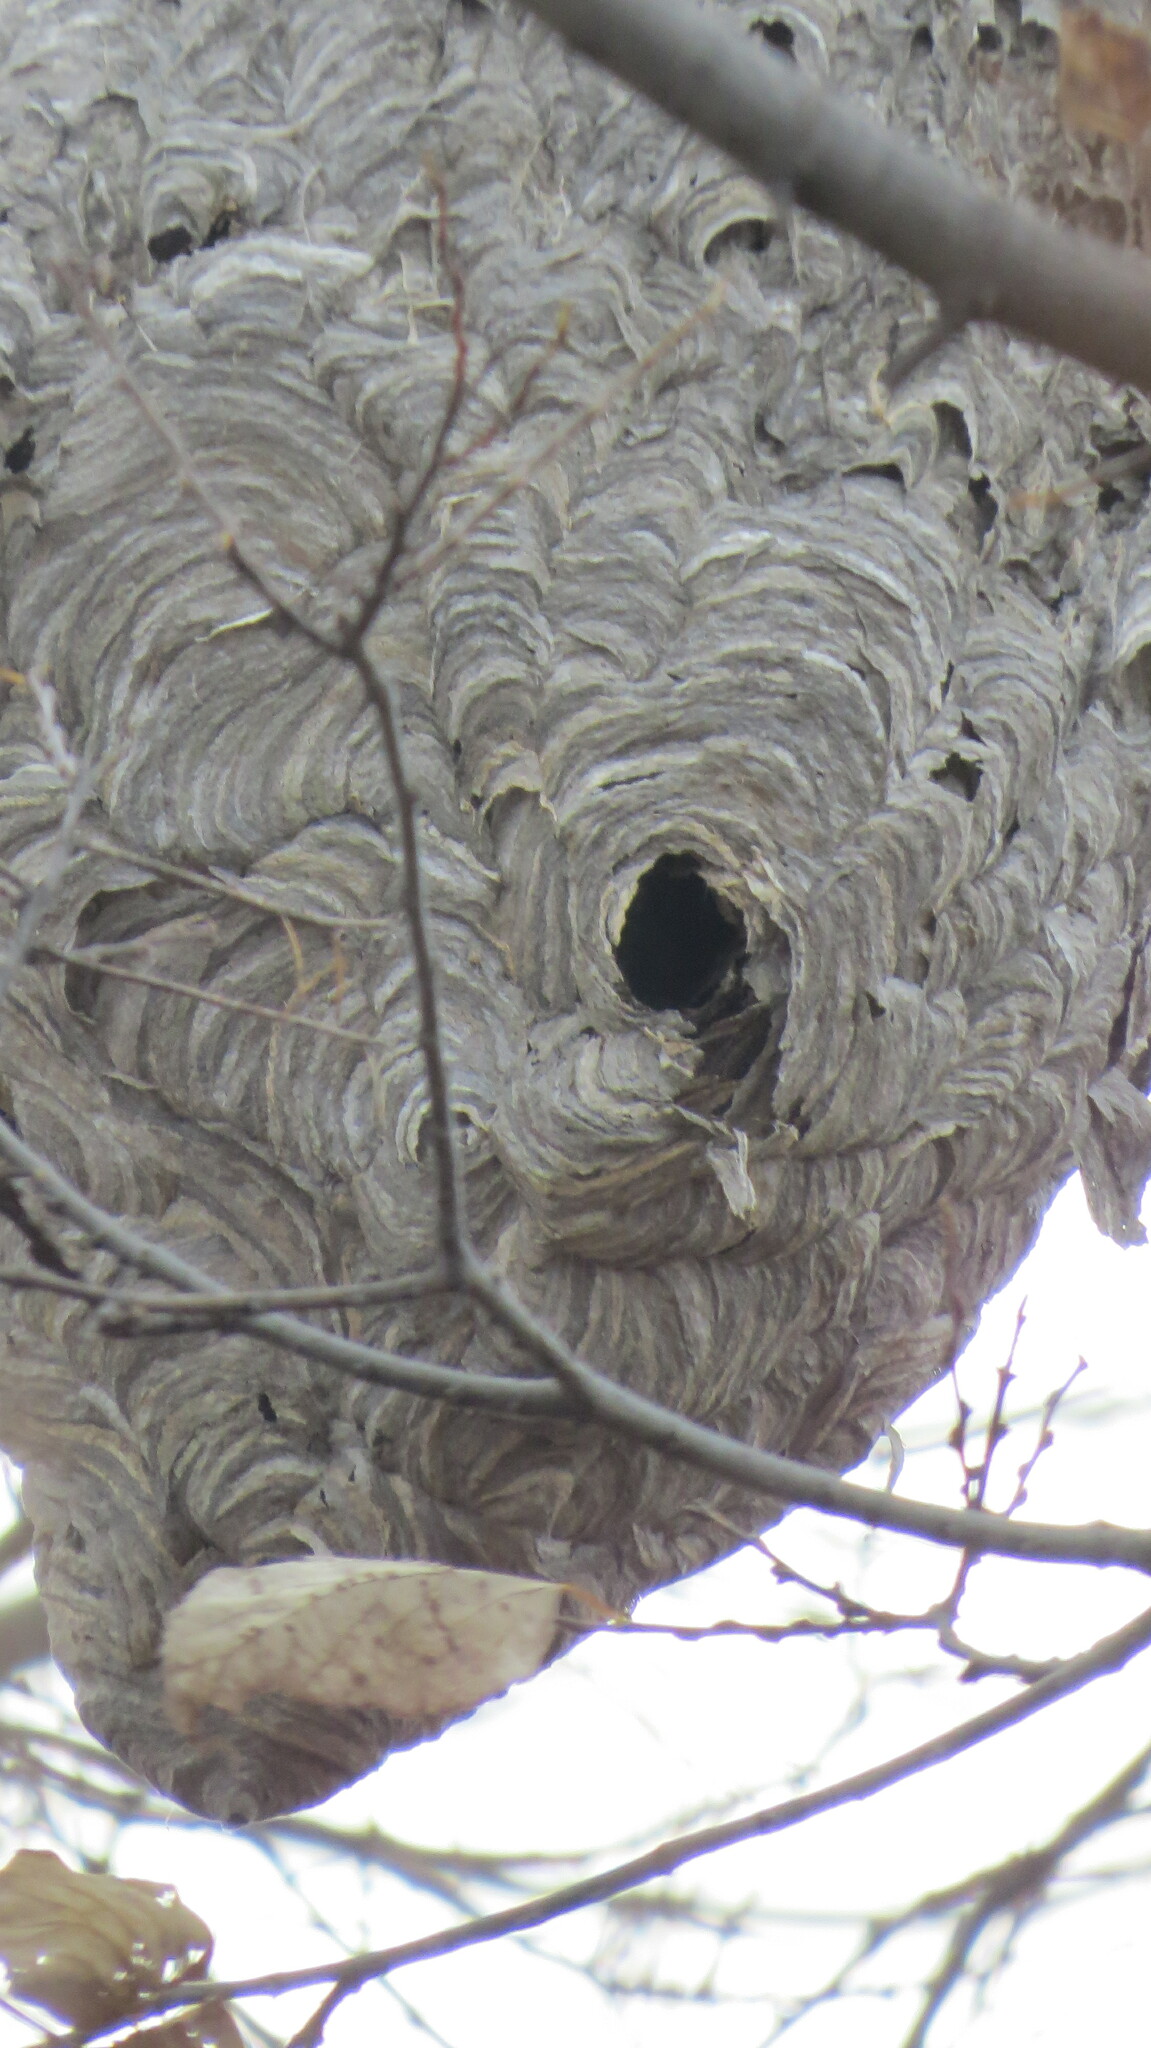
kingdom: Animalia
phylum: Arthropoda
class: Insecta
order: Hymenoptera
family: Vespidae
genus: Dolichovespula
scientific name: Dolichovespula maculata
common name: Bald-faced hornet
